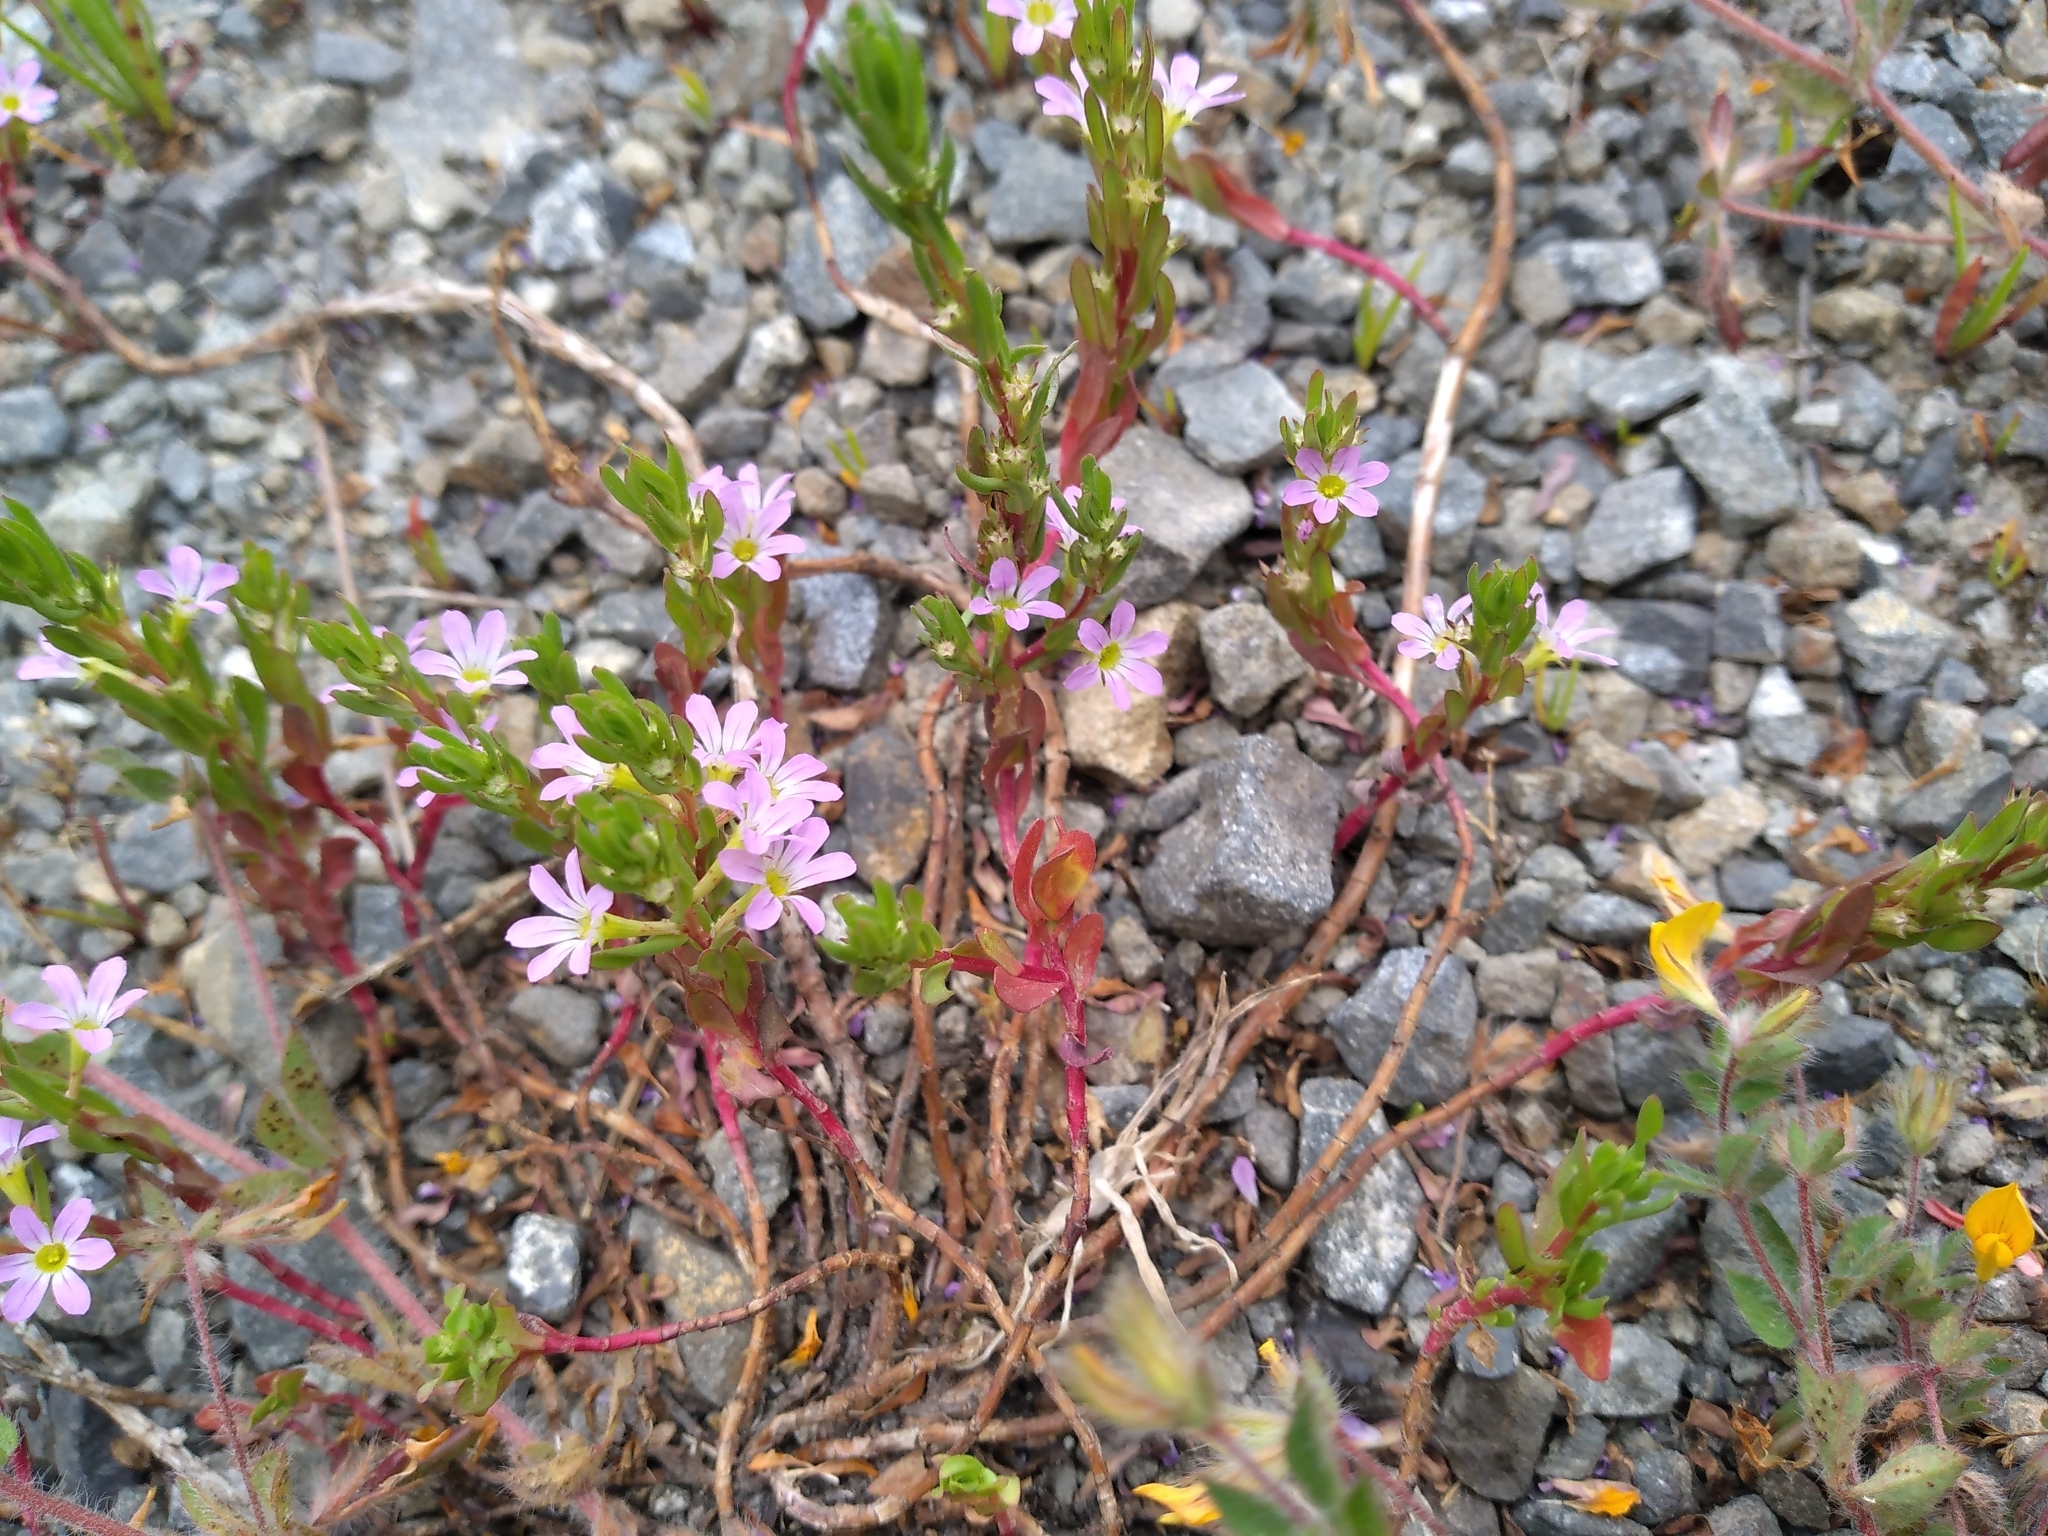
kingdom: Plantae
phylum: Tracheophyta
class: Magnoliopsida
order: Myrtales
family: Lythraceae
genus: Lythrum
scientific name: Lythrum hyssopifolia
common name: Grass-poly
